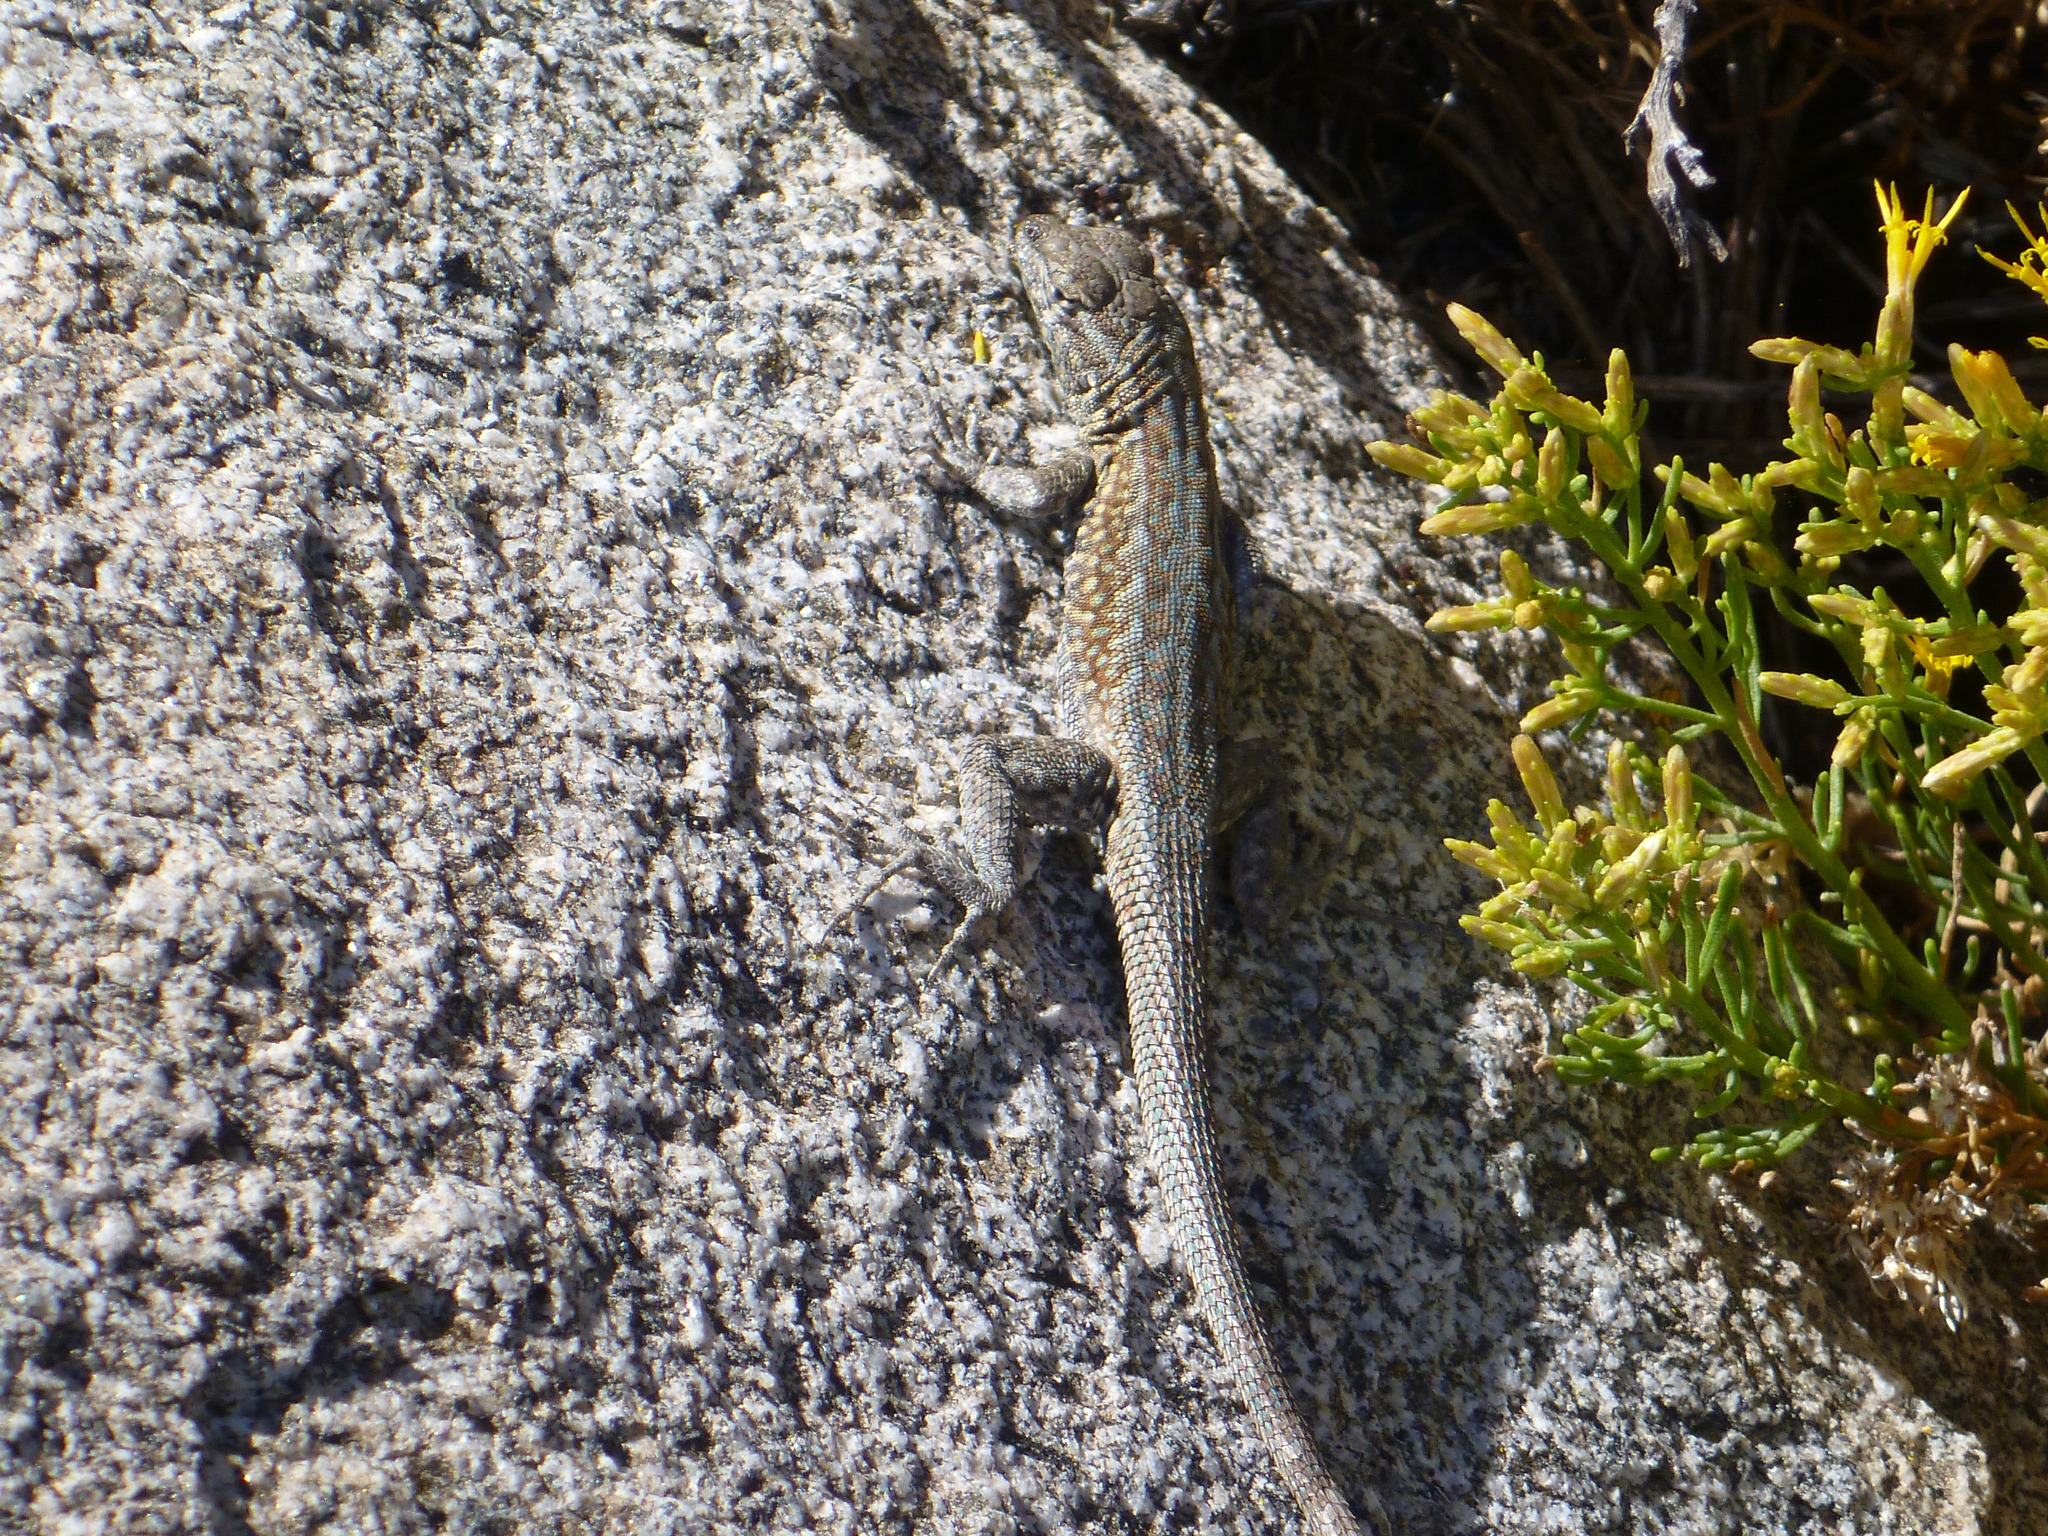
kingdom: Animalia
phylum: Chordata
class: Squamata
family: Phrynosomatidae
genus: Uta
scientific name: Uta stansburiana
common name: Side-blotched lizard
